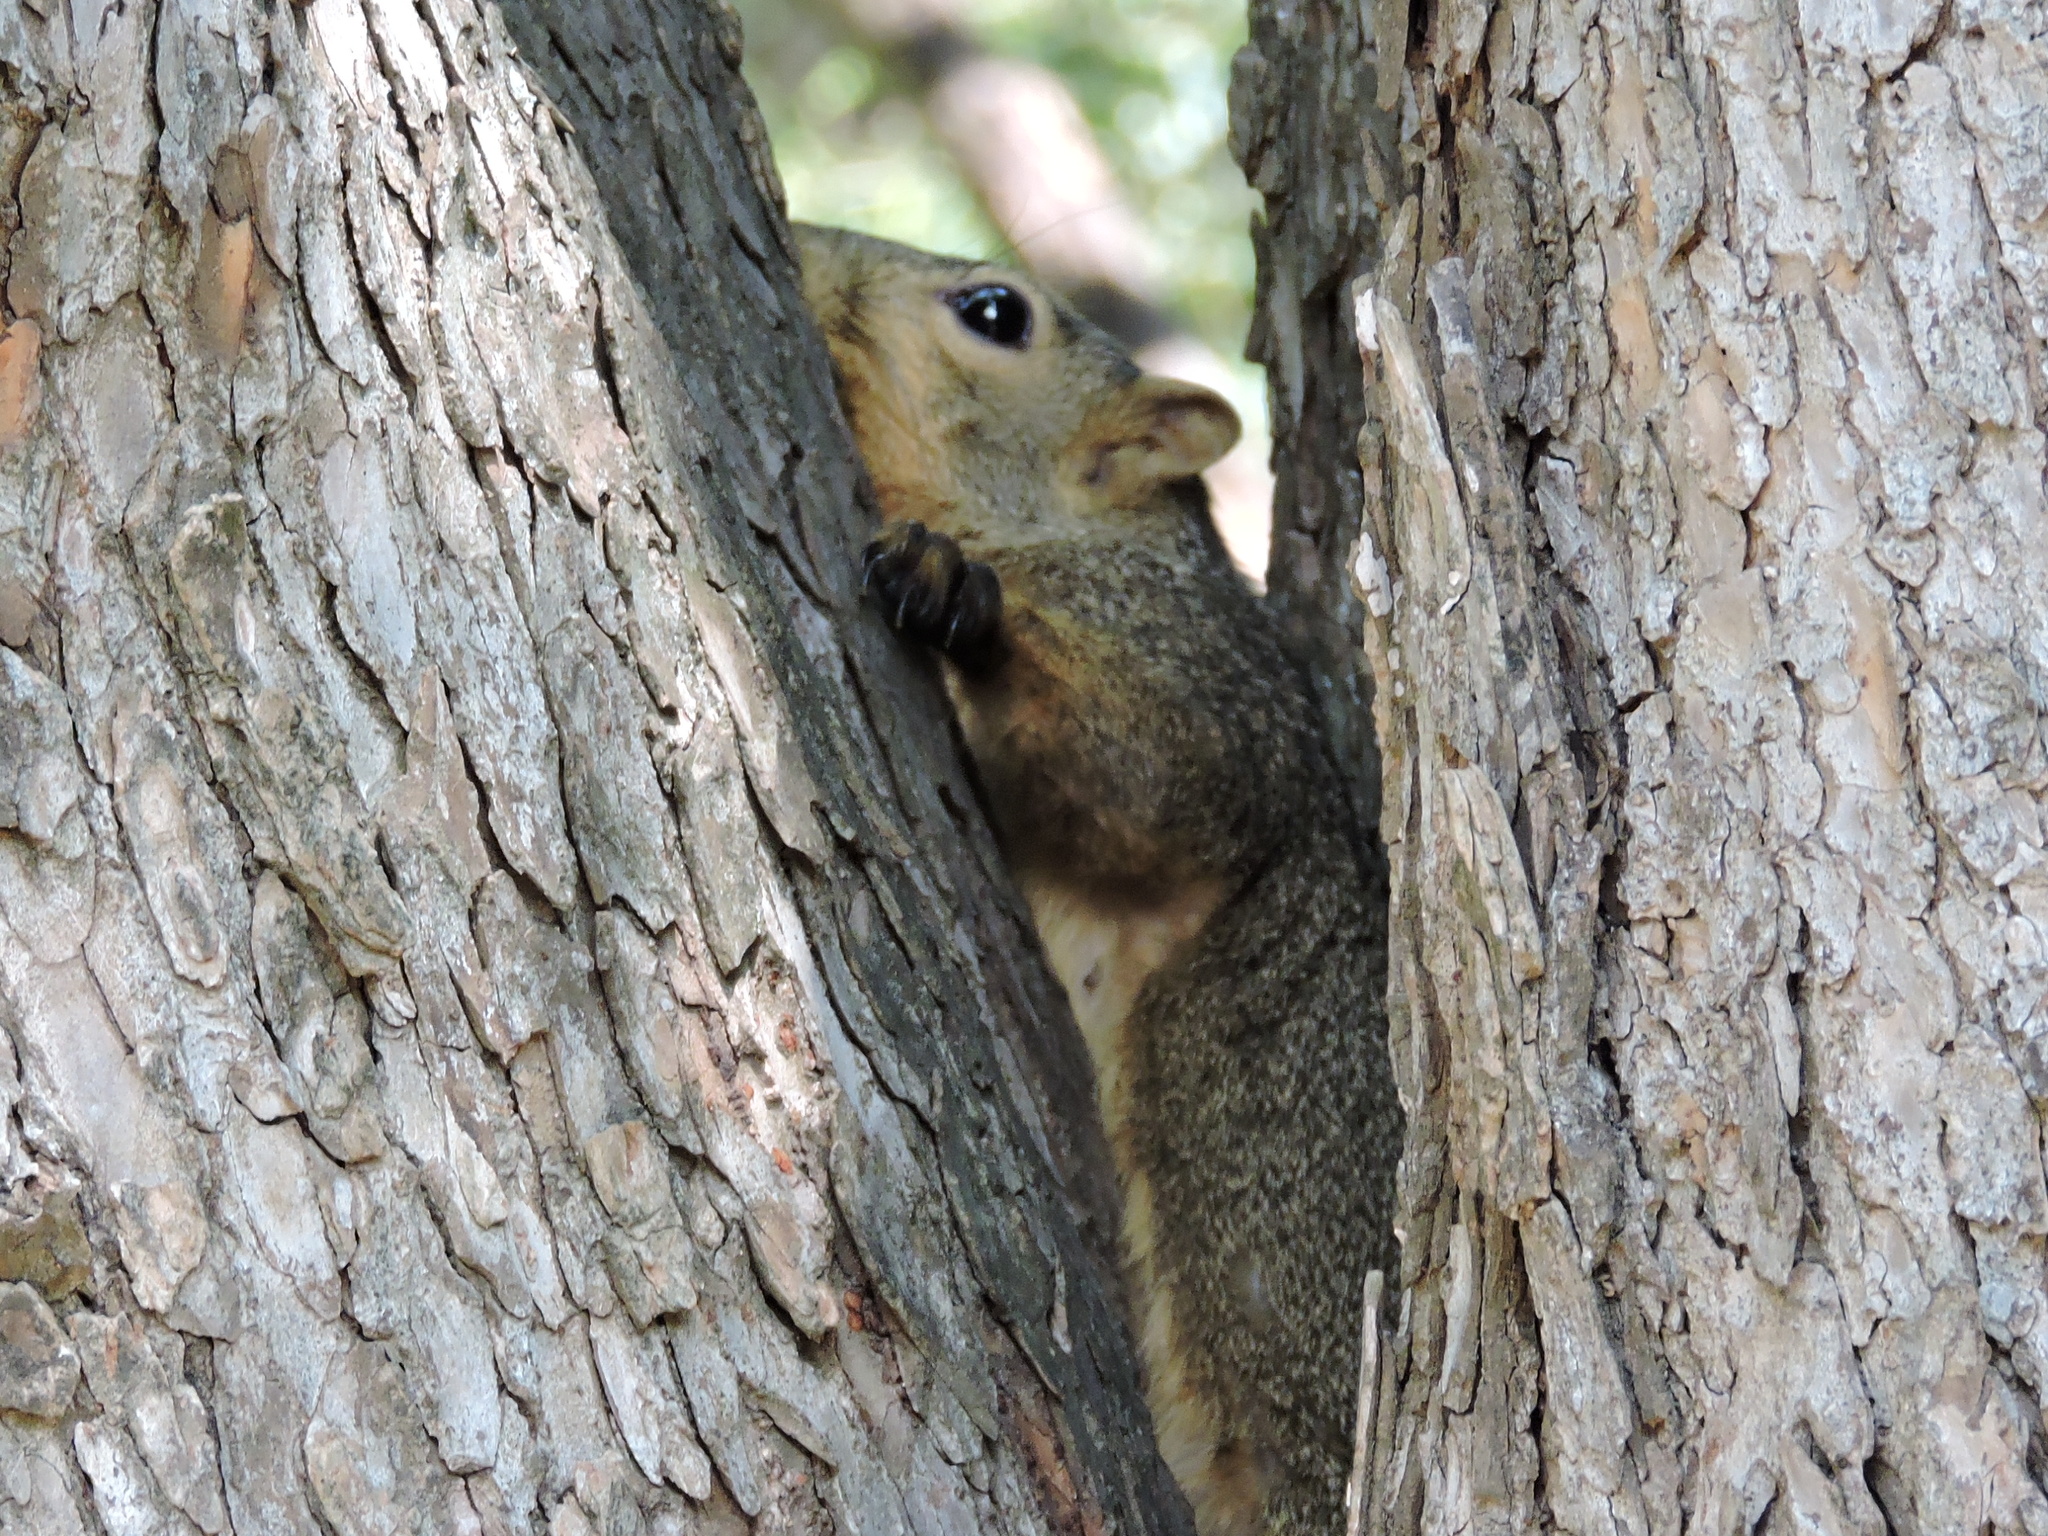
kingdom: Animalia
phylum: Chordata
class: Mammalia
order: Rodentia
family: Sciuridae
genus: Sciurus
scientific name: Sciurus niger
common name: Fox squirrel
